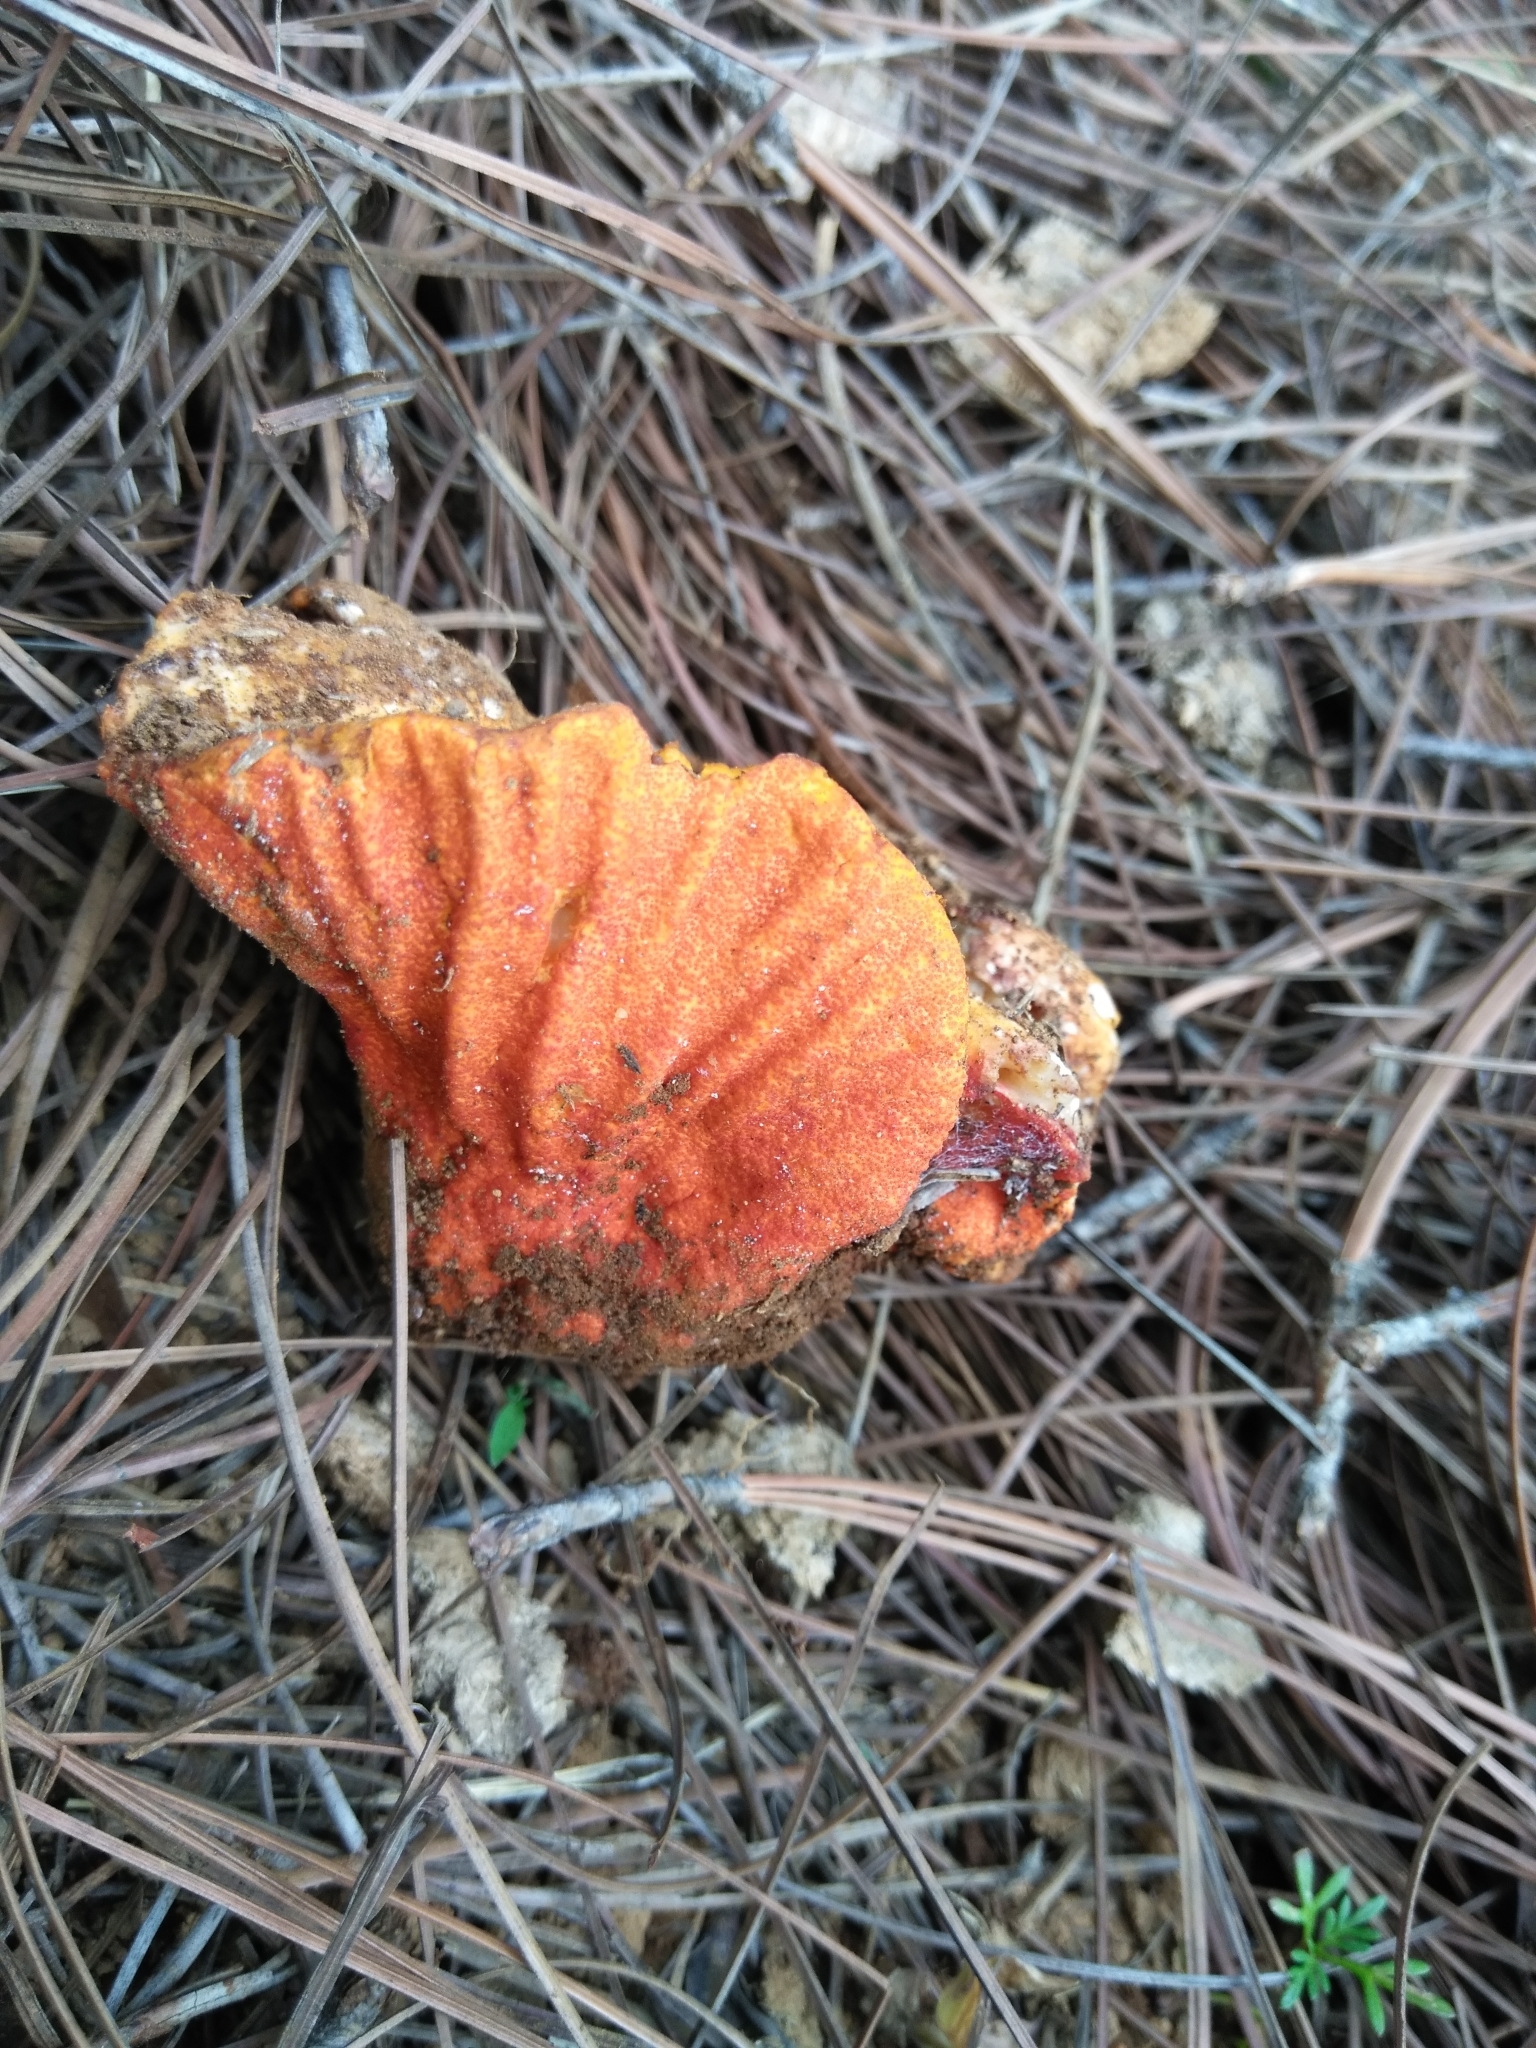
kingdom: Fungi
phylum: Ascomycota
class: Sordariomycetes
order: Hypocreales
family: Hypocreaceae
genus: Hypomyces
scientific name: Hypomyces lactifluorum
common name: Lobster mushroom
